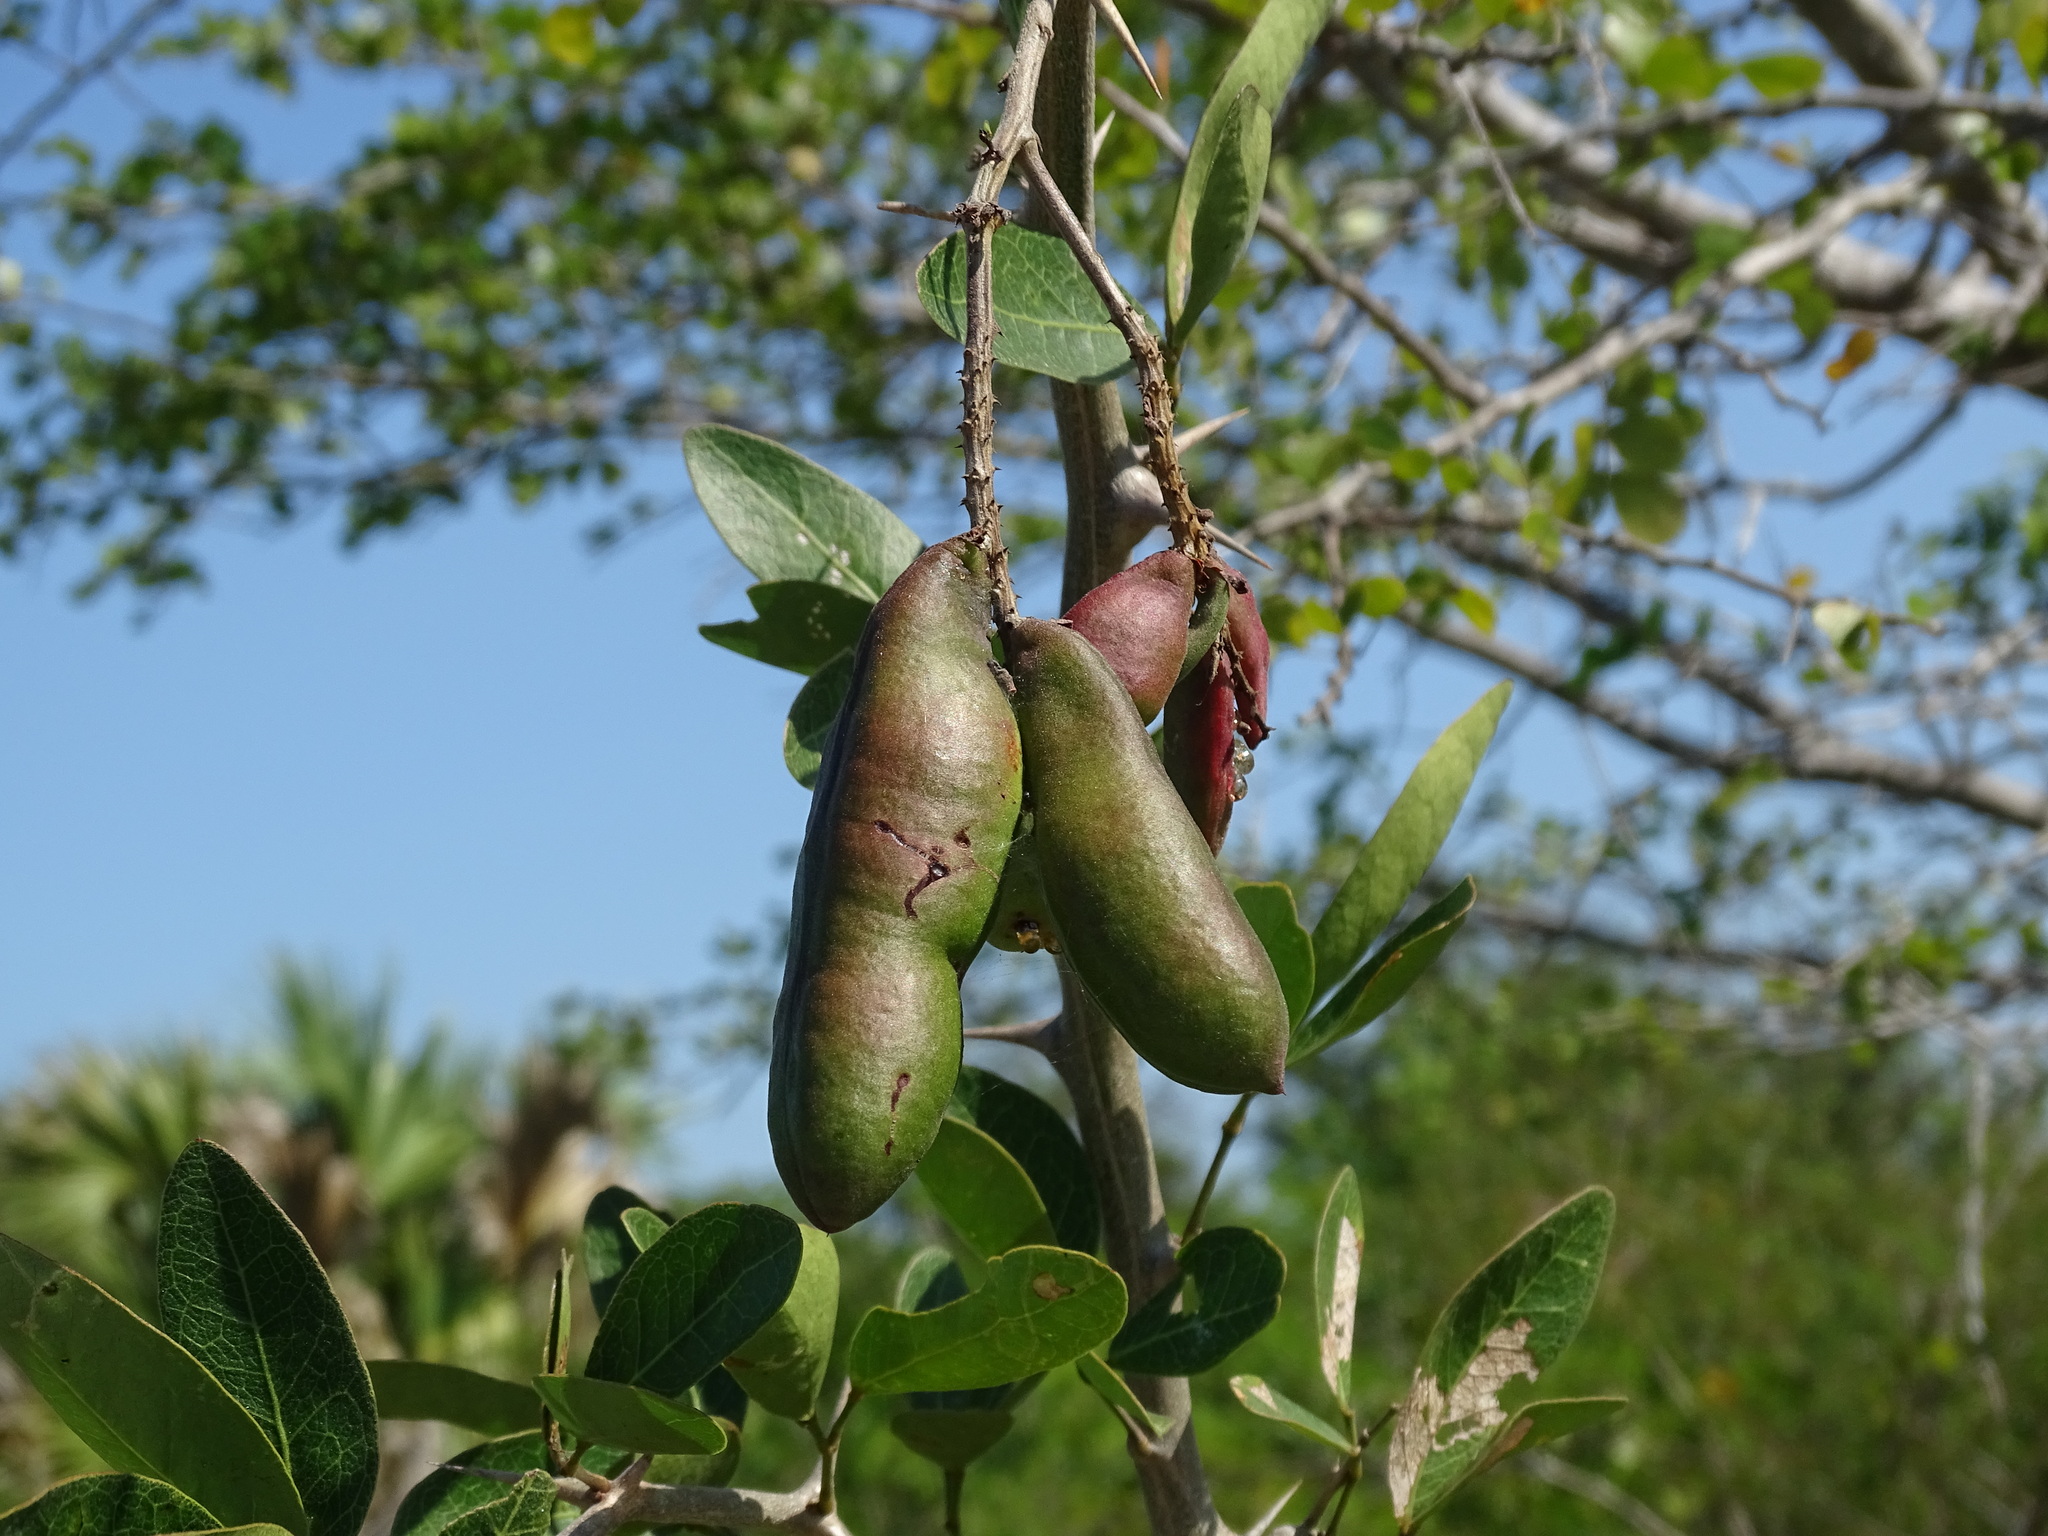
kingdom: Plantae
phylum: Tracheophyta
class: Magnoliopsida
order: Fabales
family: Fabaceae
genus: Pithecellobium
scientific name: Pithecellobium lanceolatum
